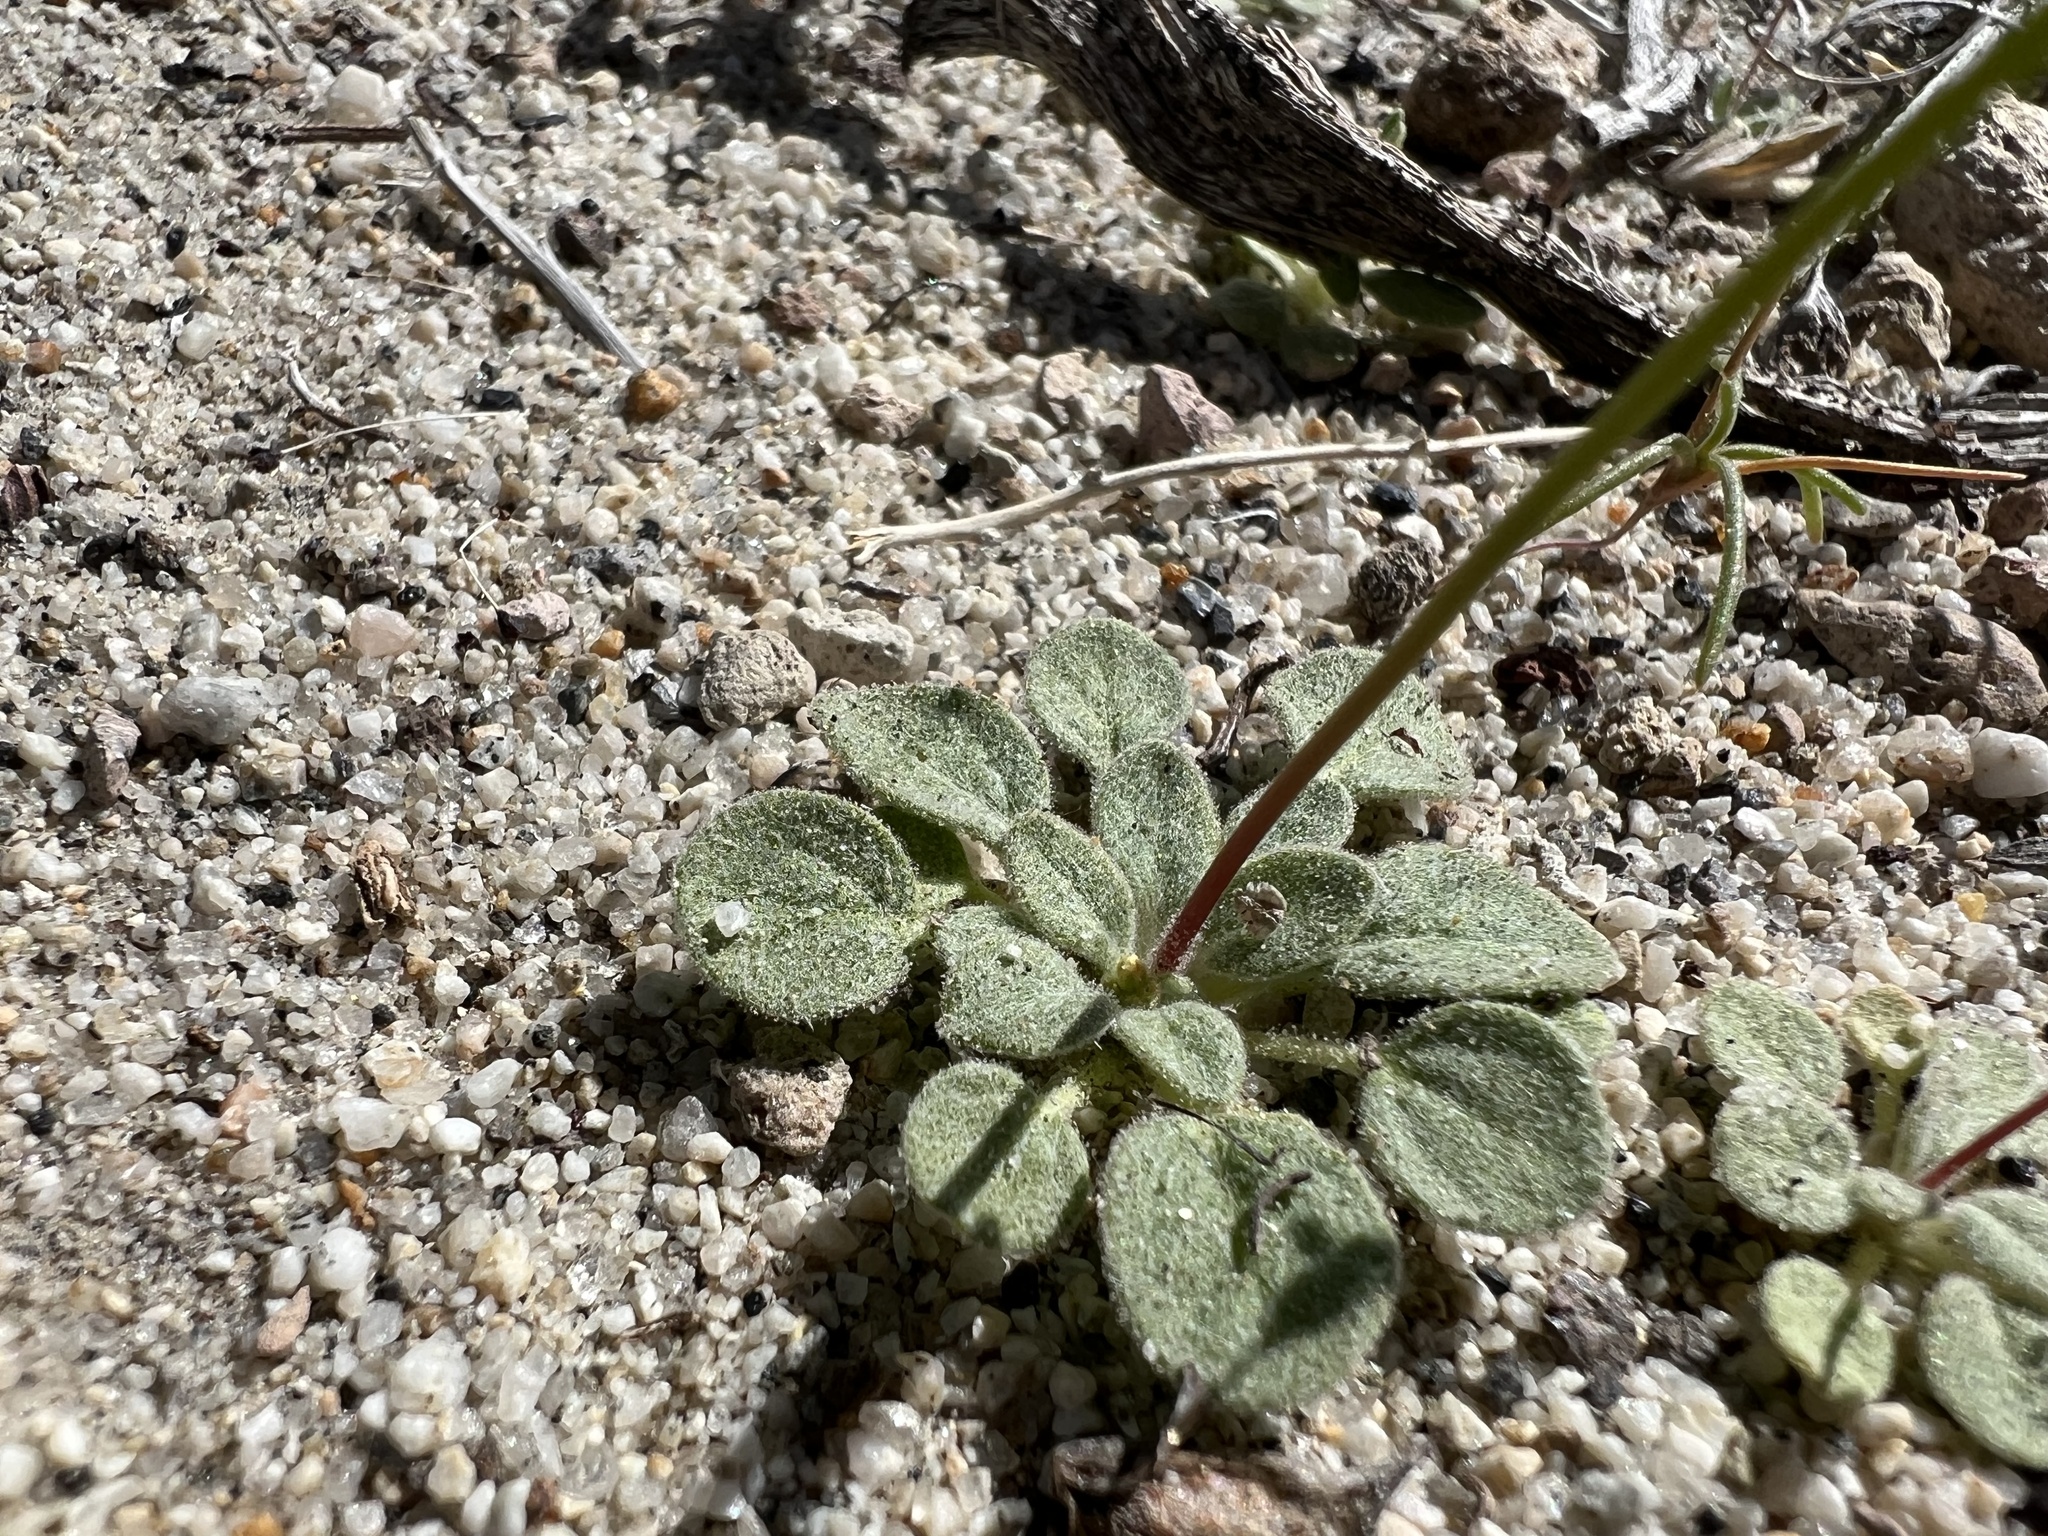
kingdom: Plantae
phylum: Tracheophyta
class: Magnoliopsida
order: Caryophyllales
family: Polygonaceae
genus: Eriogonum
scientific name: Eriogonum pusillum
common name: Yellow turbans
